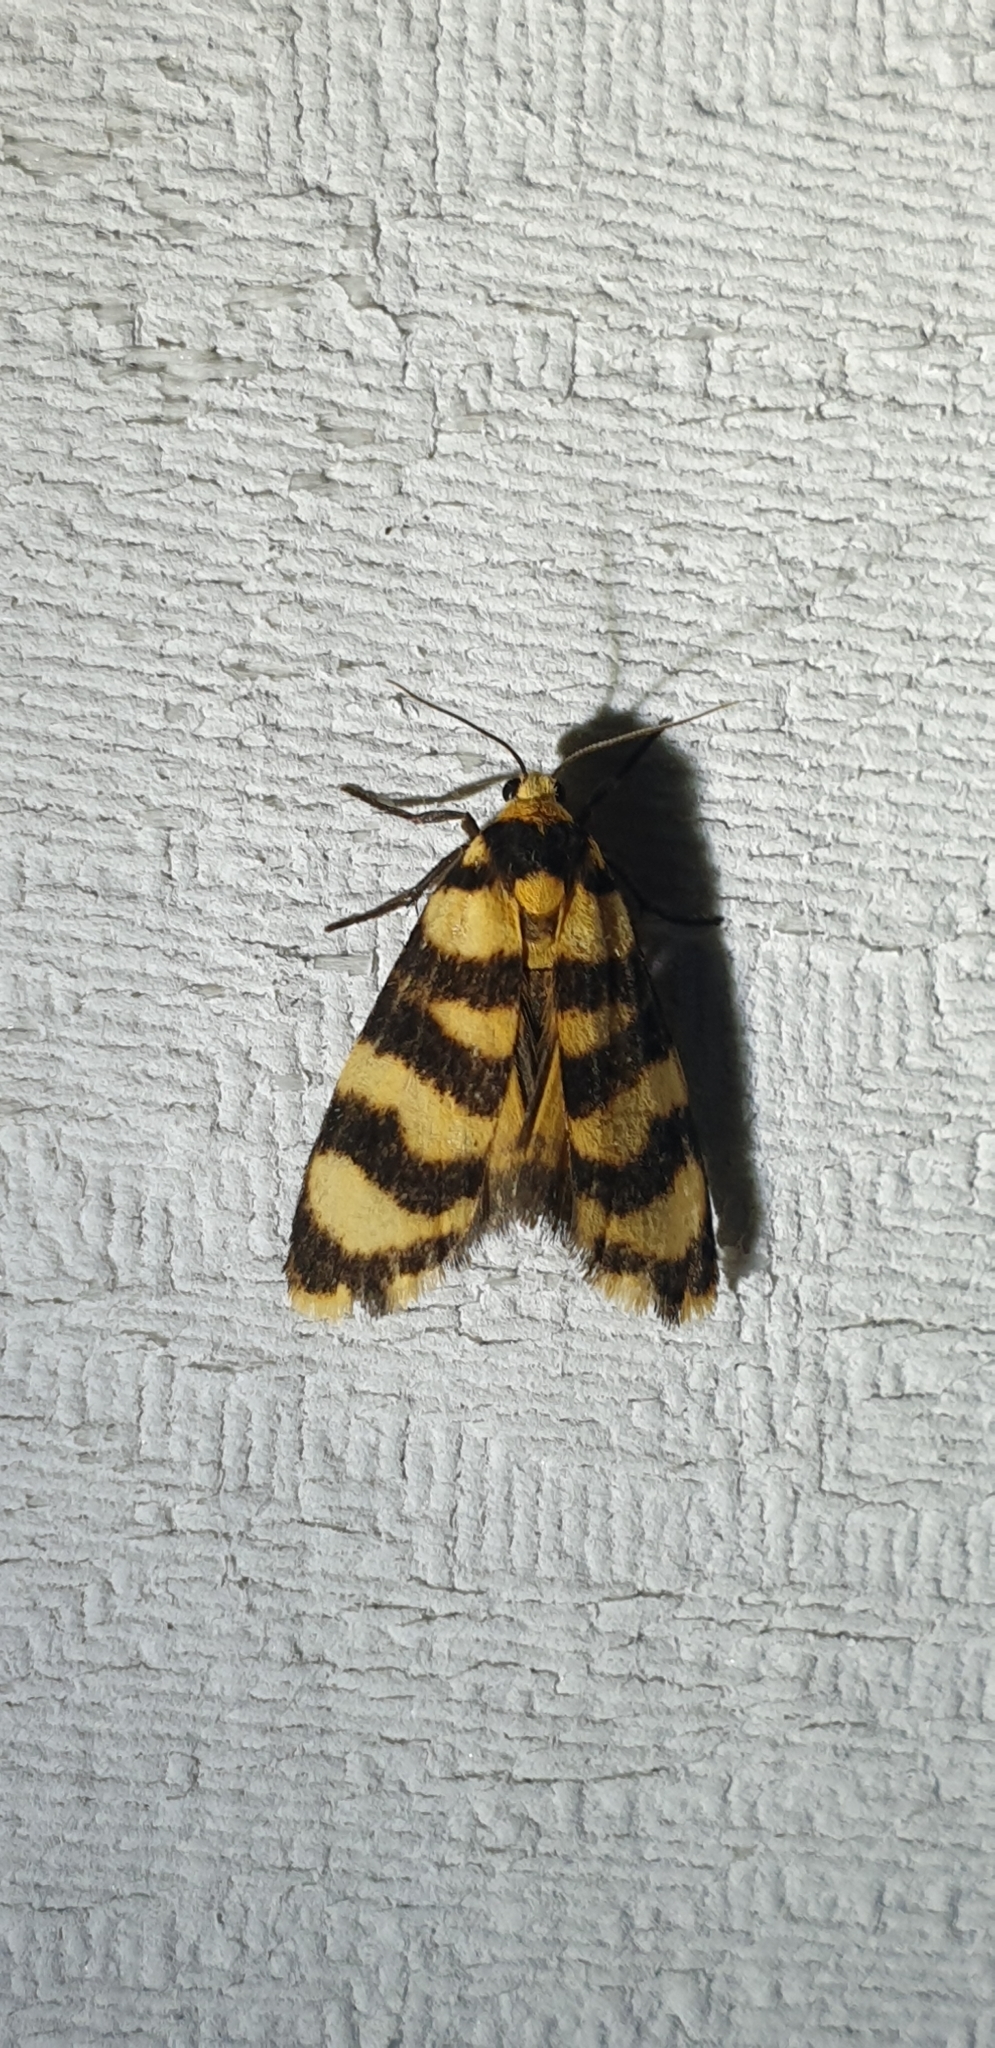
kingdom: Animalia
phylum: Arthropoda
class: Insecta
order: Lepidoptera
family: Erebidae
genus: Scaptesyle
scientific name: Scaptesyle equidistans
